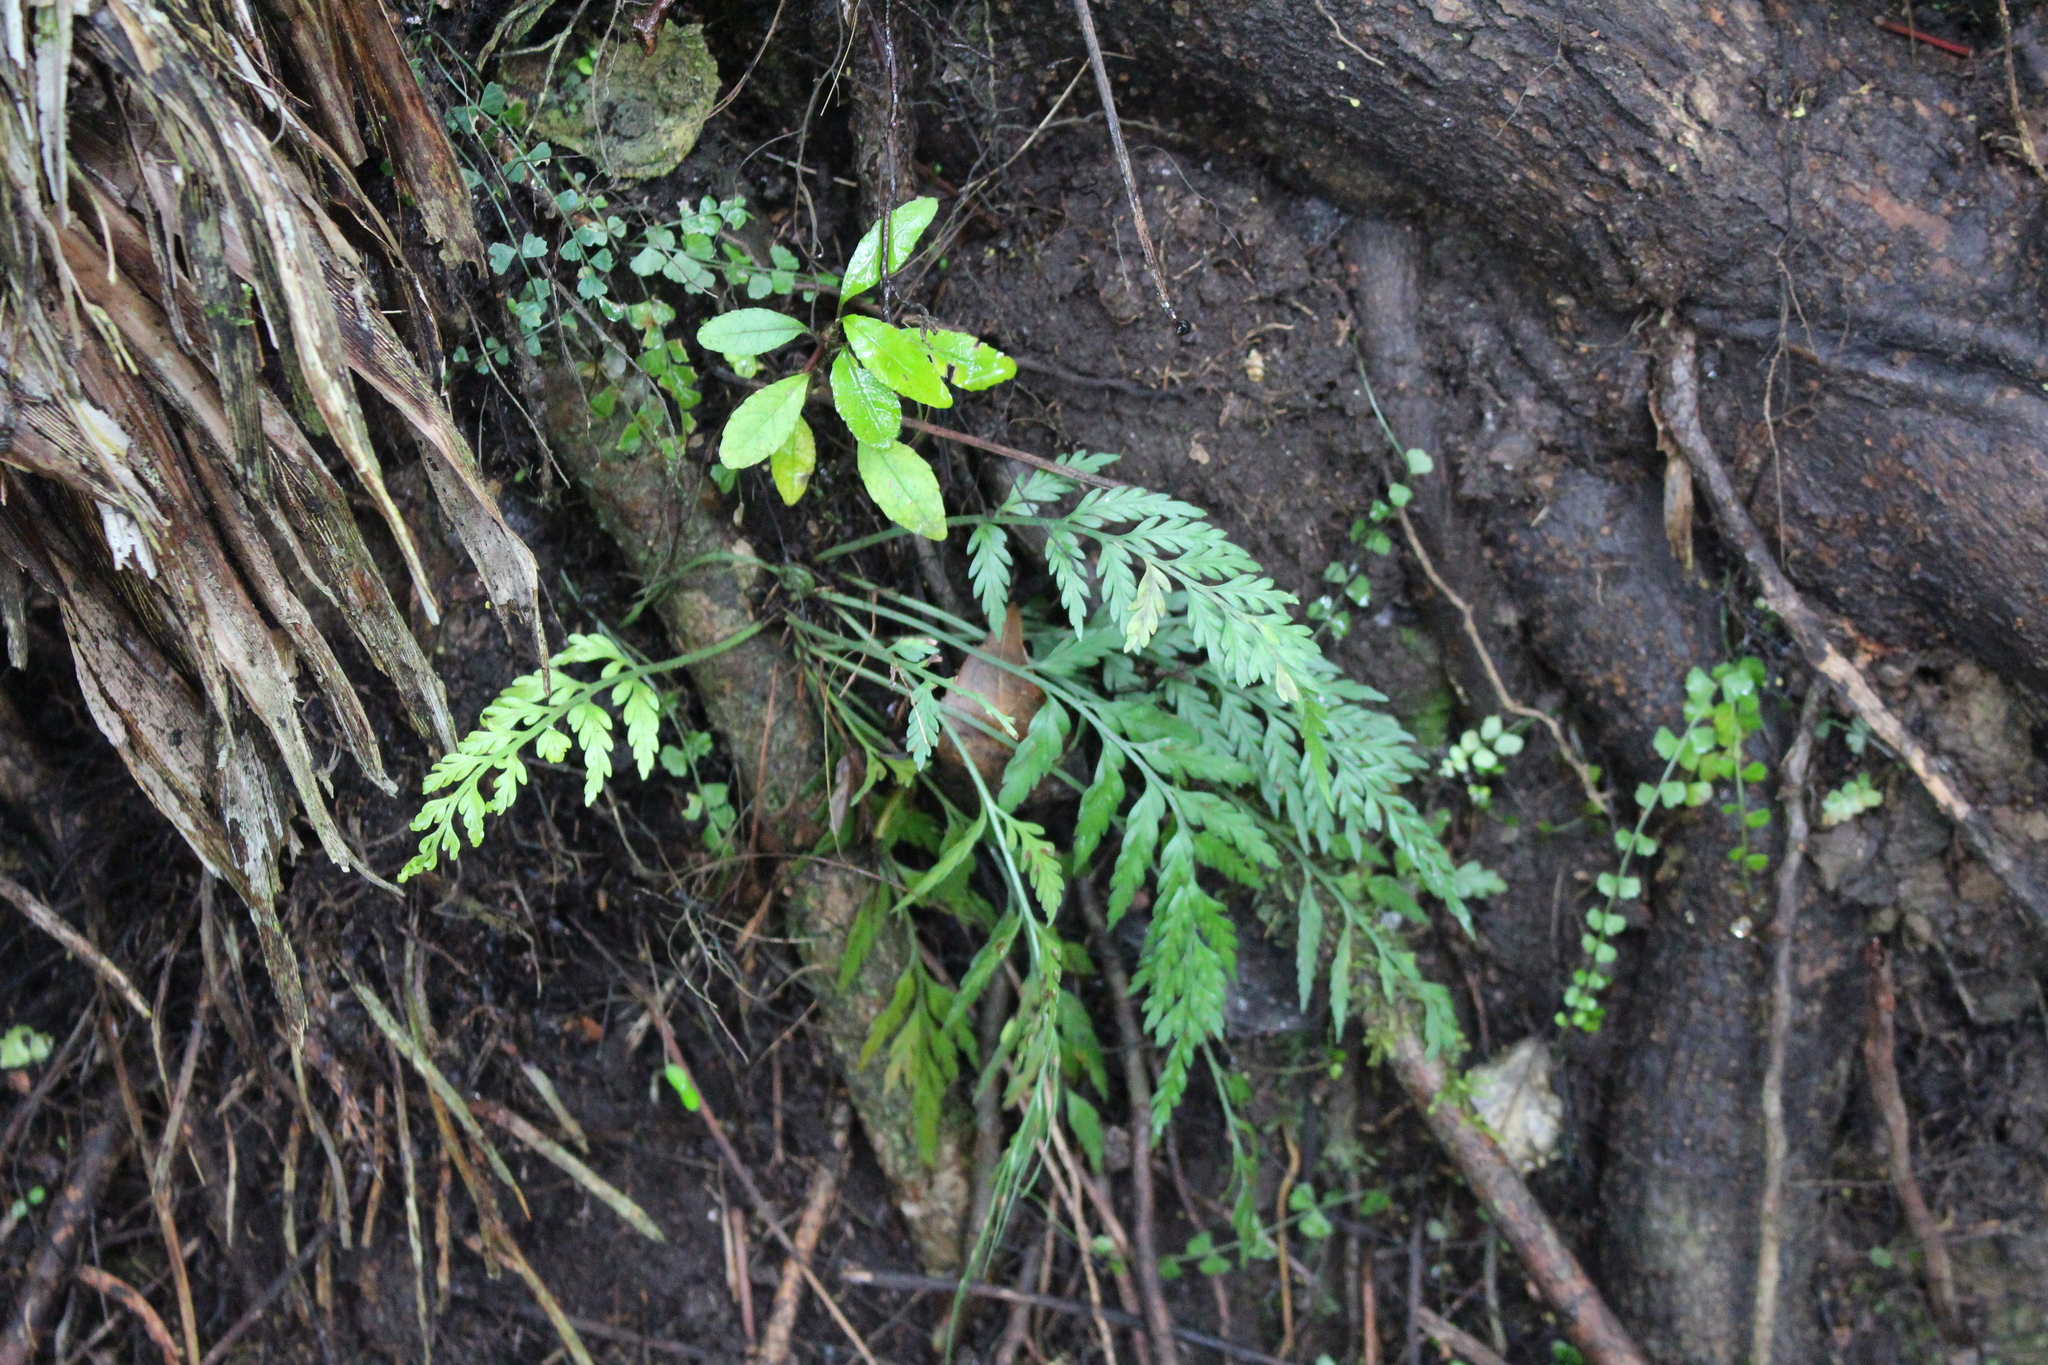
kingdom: Plantae
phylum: Tracheophyta
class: Polypodiopsida
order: Polypodiales
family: Aspleniaceae
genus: Asplenium
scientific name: Asplenium appendiculatum
